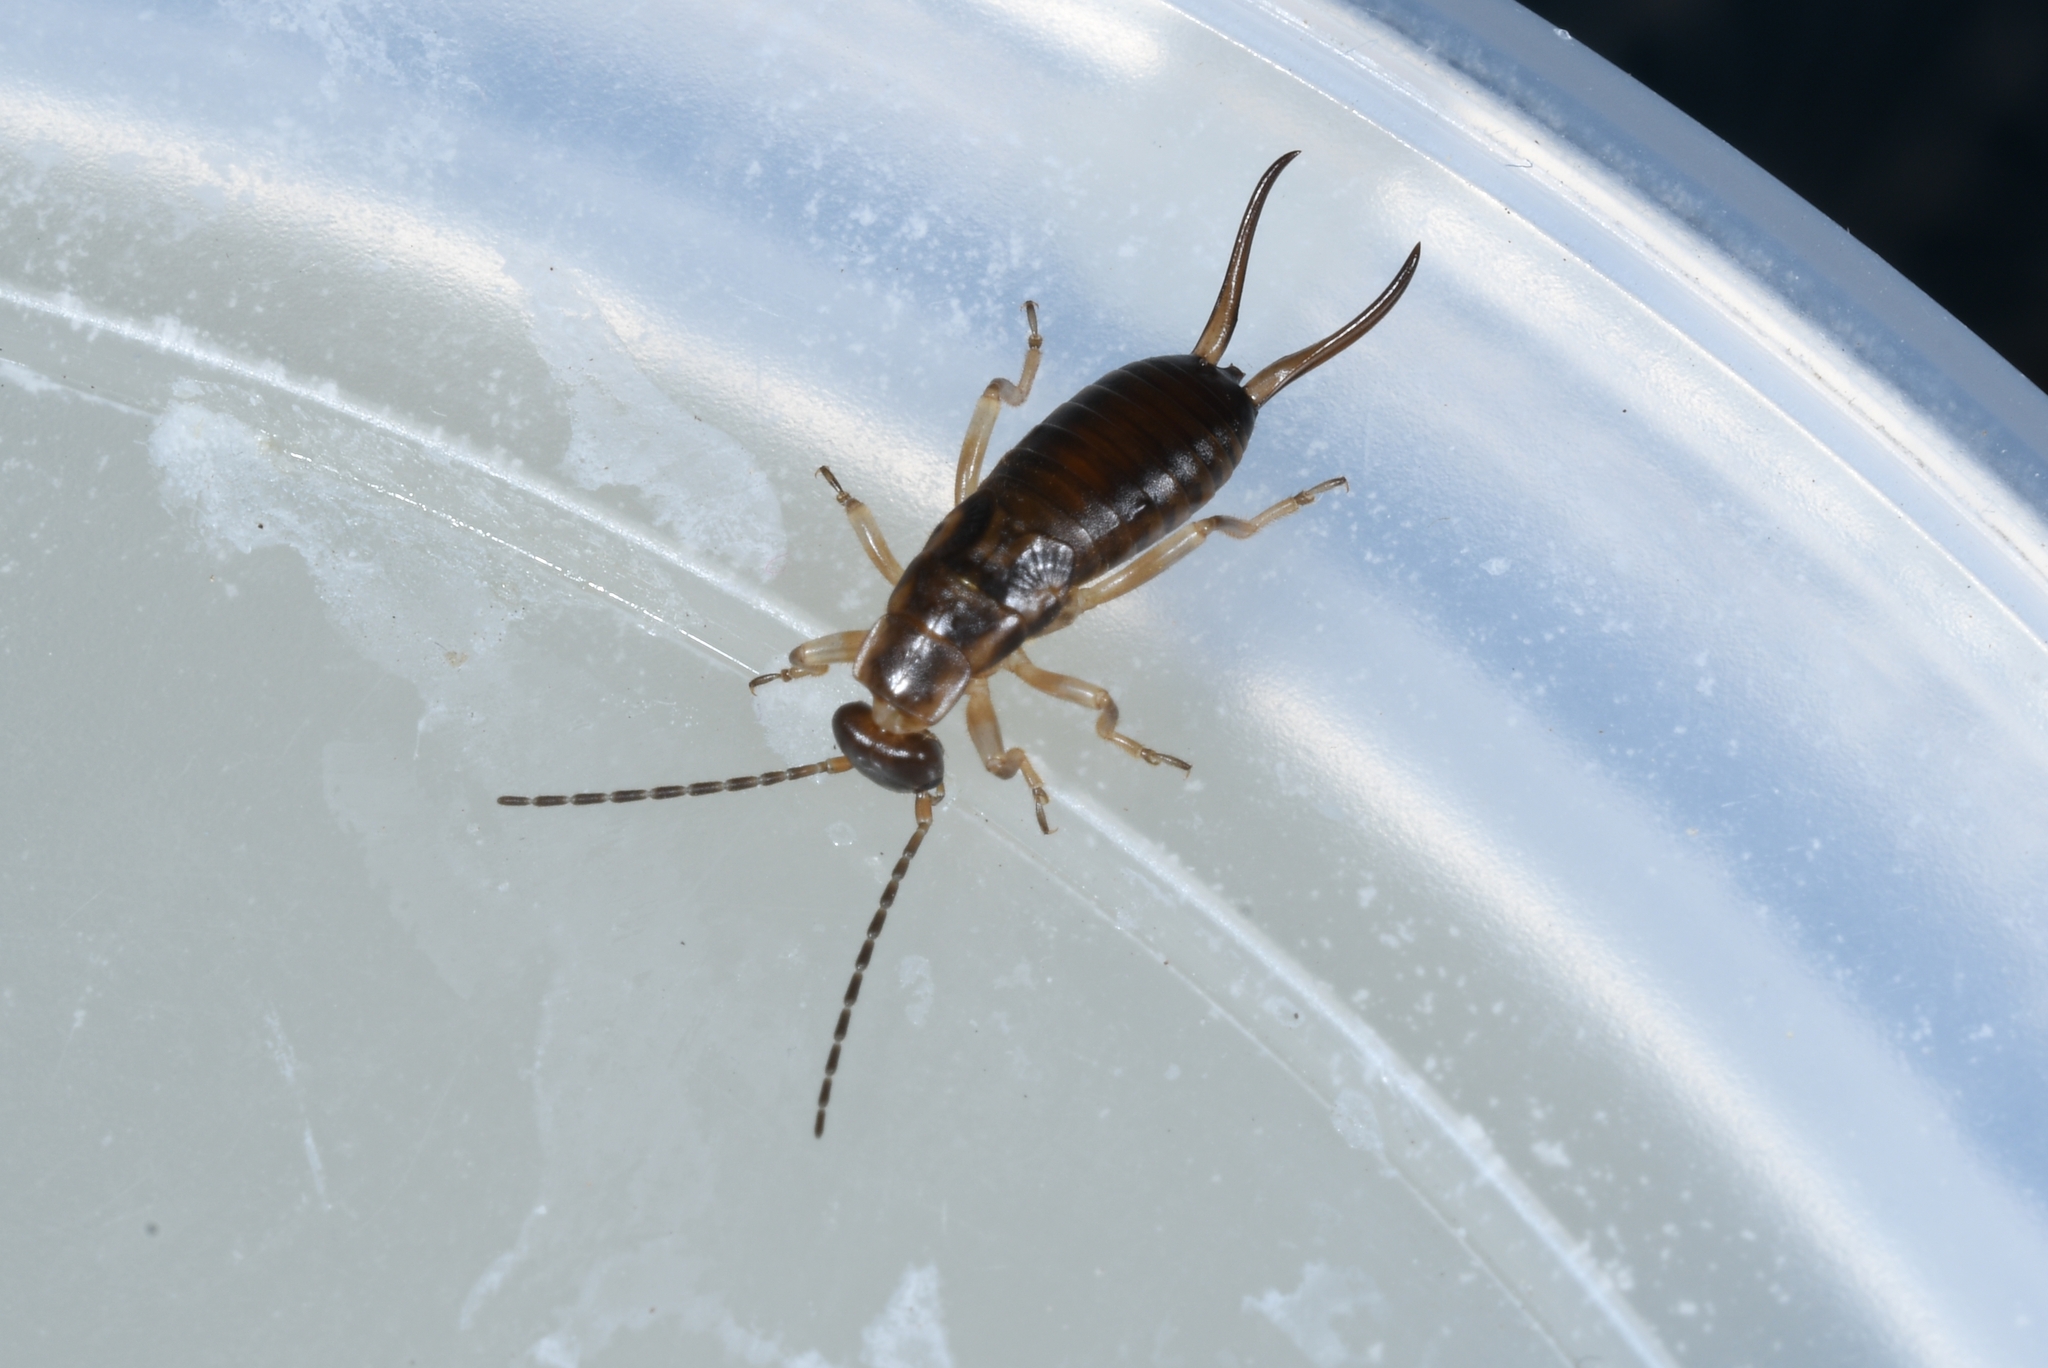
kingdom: Animalia
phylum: Arthropoda
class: Insecta
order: Dermaptera
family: Forficulidae
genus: Forficula
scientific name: Forficula
